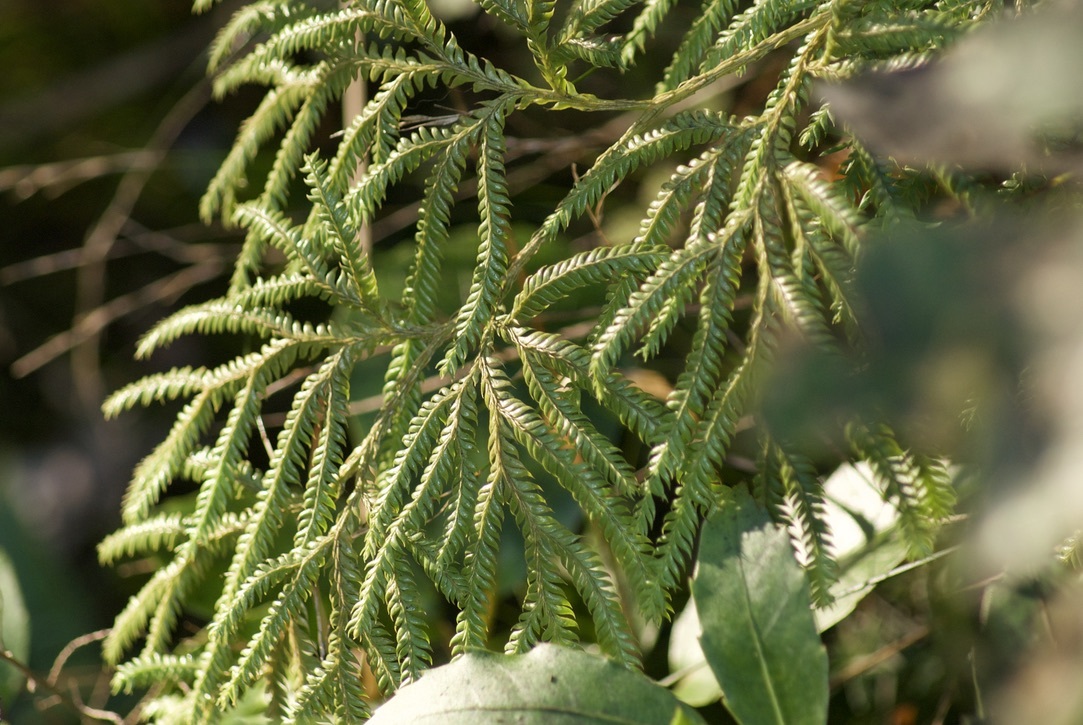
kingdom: Plantae
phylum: Tracheophyta
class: Lycopodiopsida
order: Lycopodiales
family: Lycopodiaceae
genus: Lycopodium
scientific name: Lycopodium volubile
